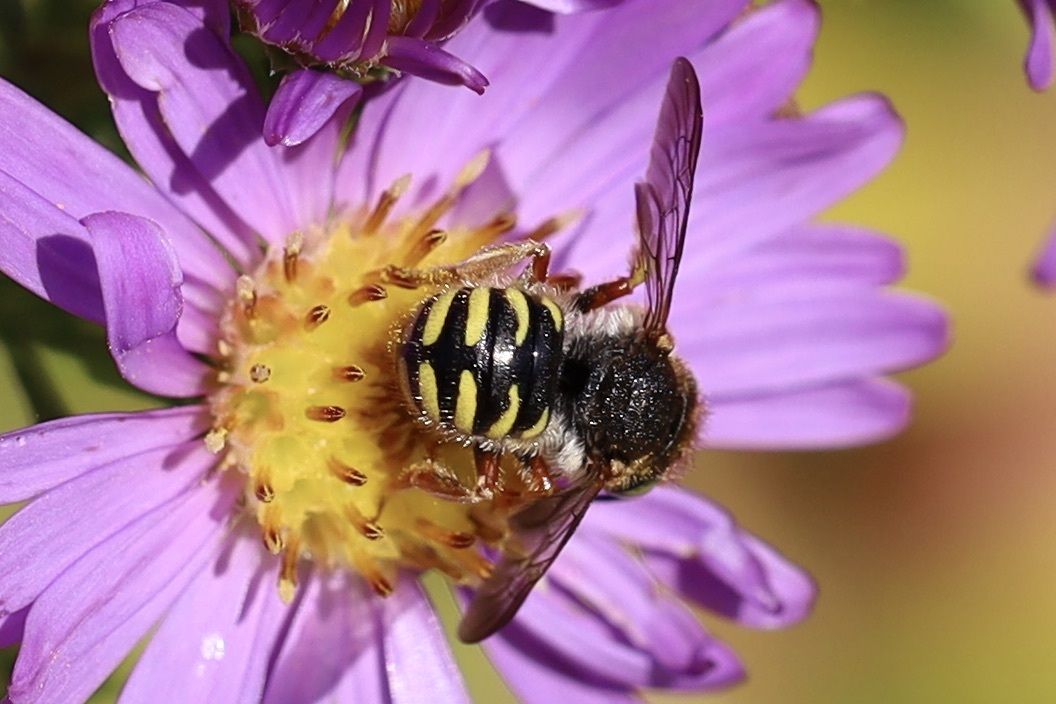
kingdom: Animalia
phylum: Arthropoda
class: Insecta
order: Hymenoptera
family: Megachilidae
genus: Anthidium
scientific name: Anthidium oblongatum
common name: Oblong wool carder bee
